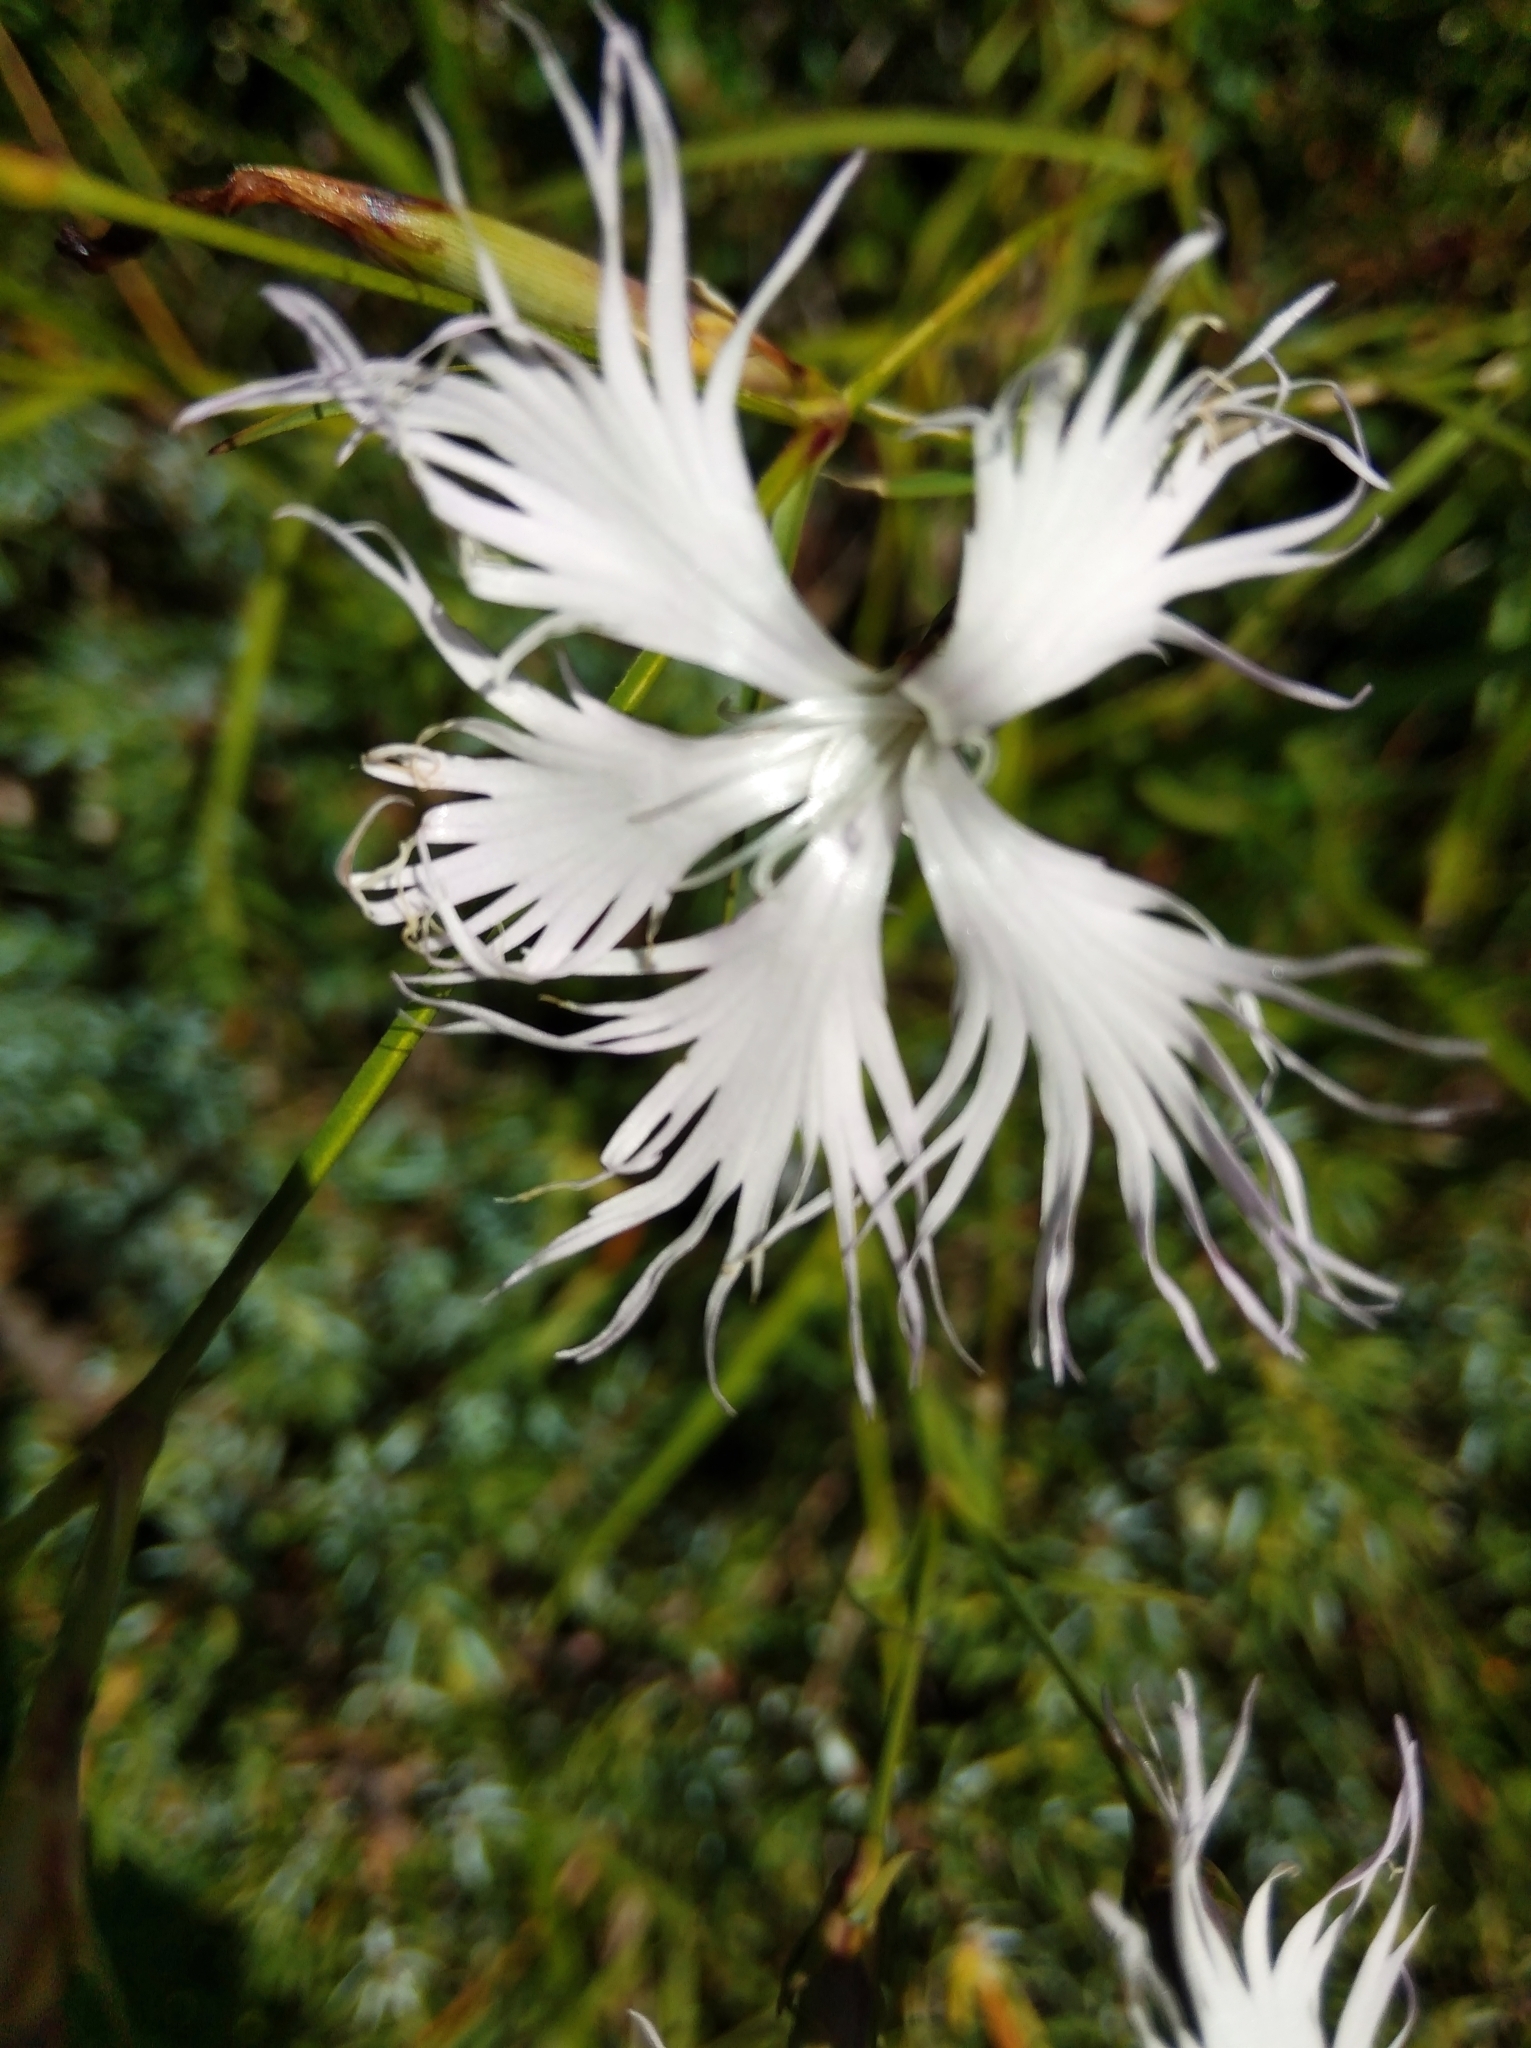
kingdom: Plantae
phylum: Tracheophyta
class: Magnoliopsida
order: Caryophyllales
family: Caryophyllaceae
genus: Dianthus
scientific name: Dianthus hyssopifolius
